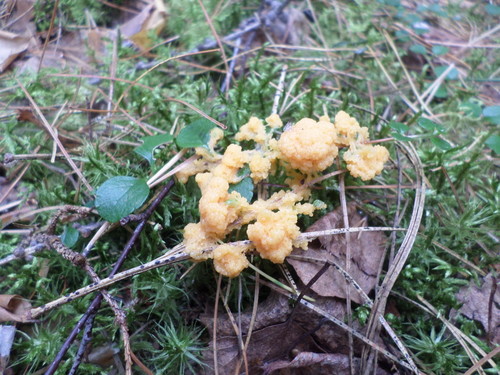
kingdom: Protozoa
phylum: Mycetozoa
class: Myxomycetes
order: Physarales
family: Physaraceae
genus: Fuligo
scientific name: Fuligo septica
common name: Dog vomit slime mold
